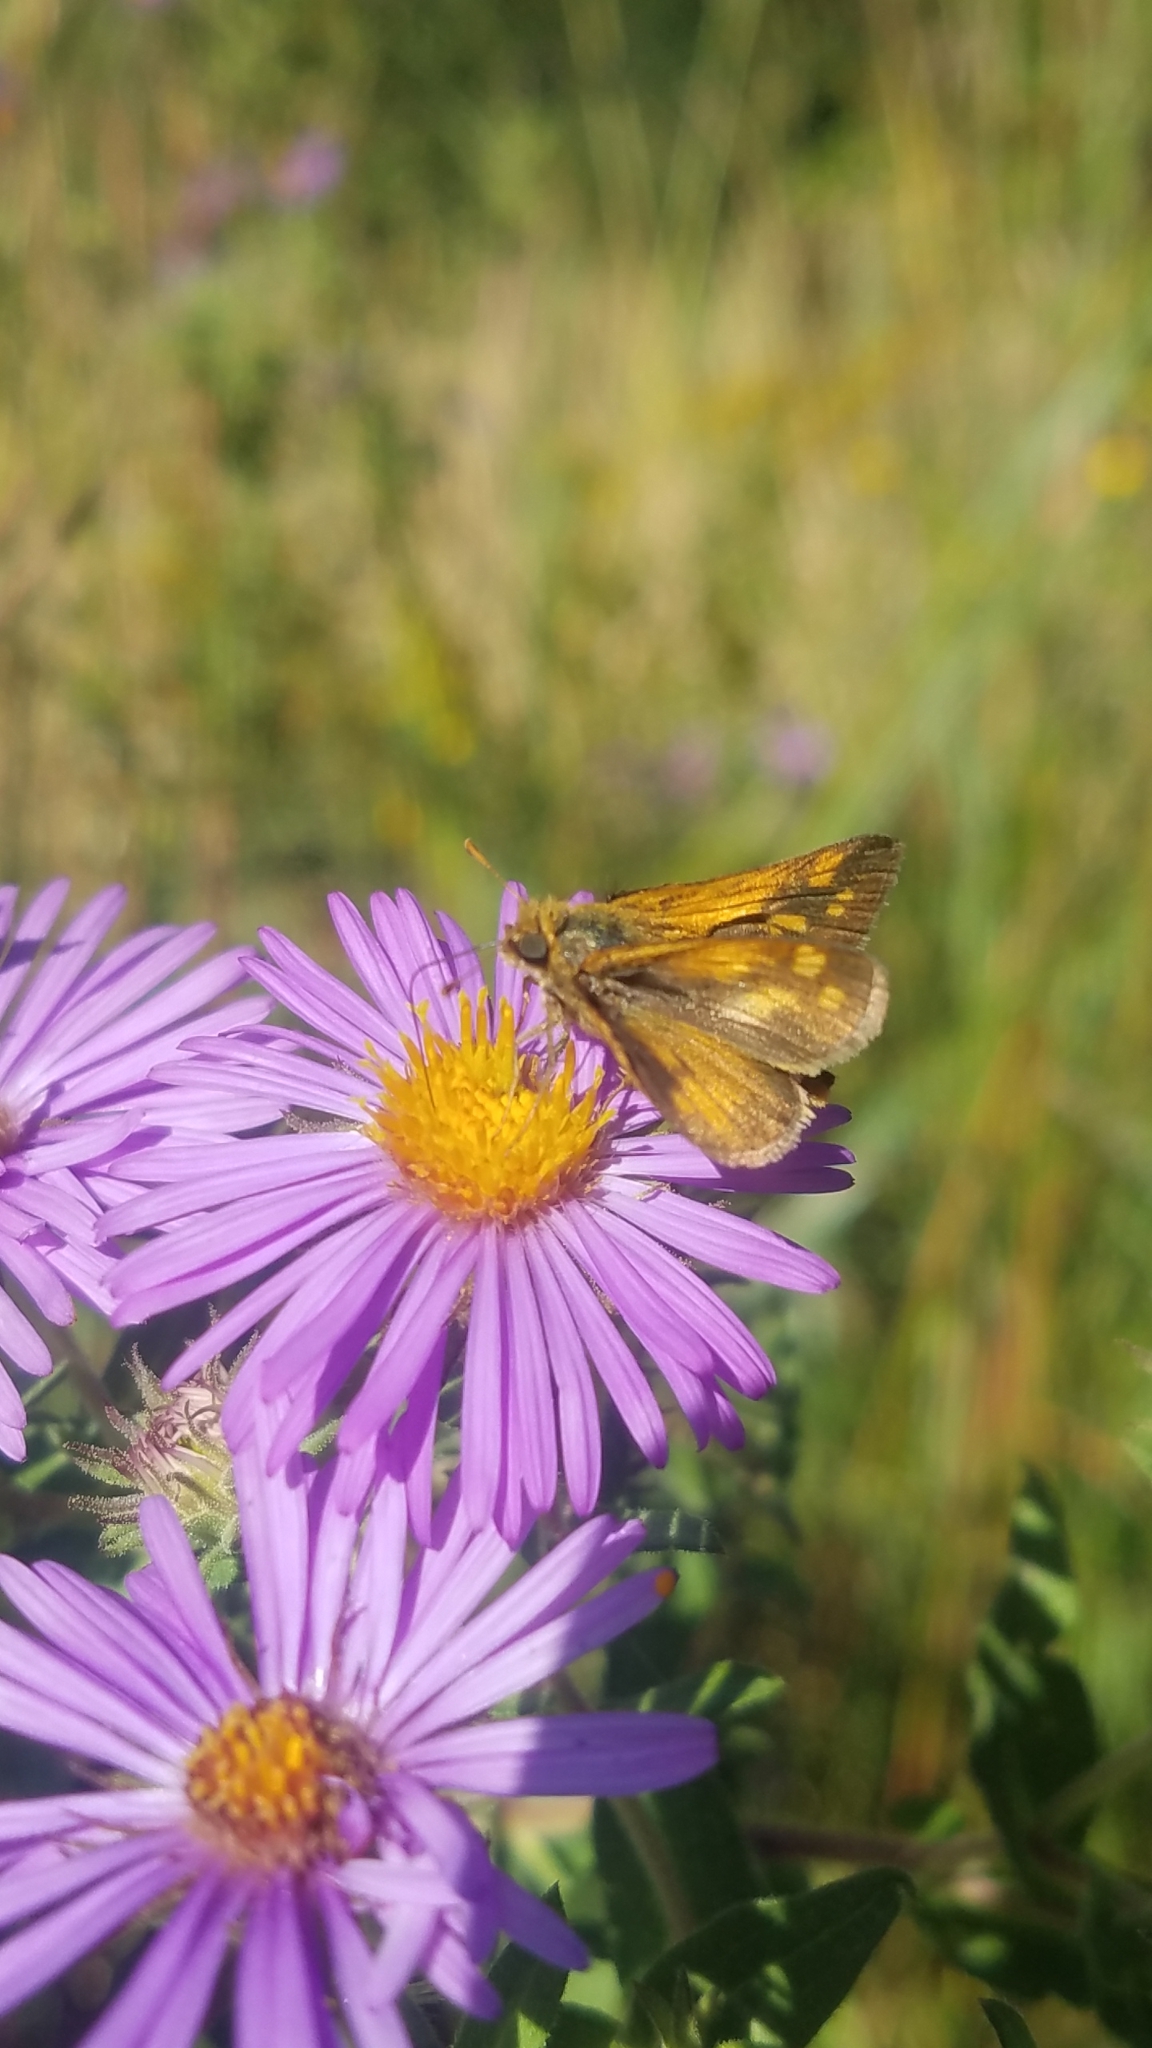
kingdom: Animalia
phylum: Arthropoda
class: Insecta
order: Lepidoptera
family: Hesperiidae
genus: Polites
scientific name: Polites coras
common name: Peck's skipper
